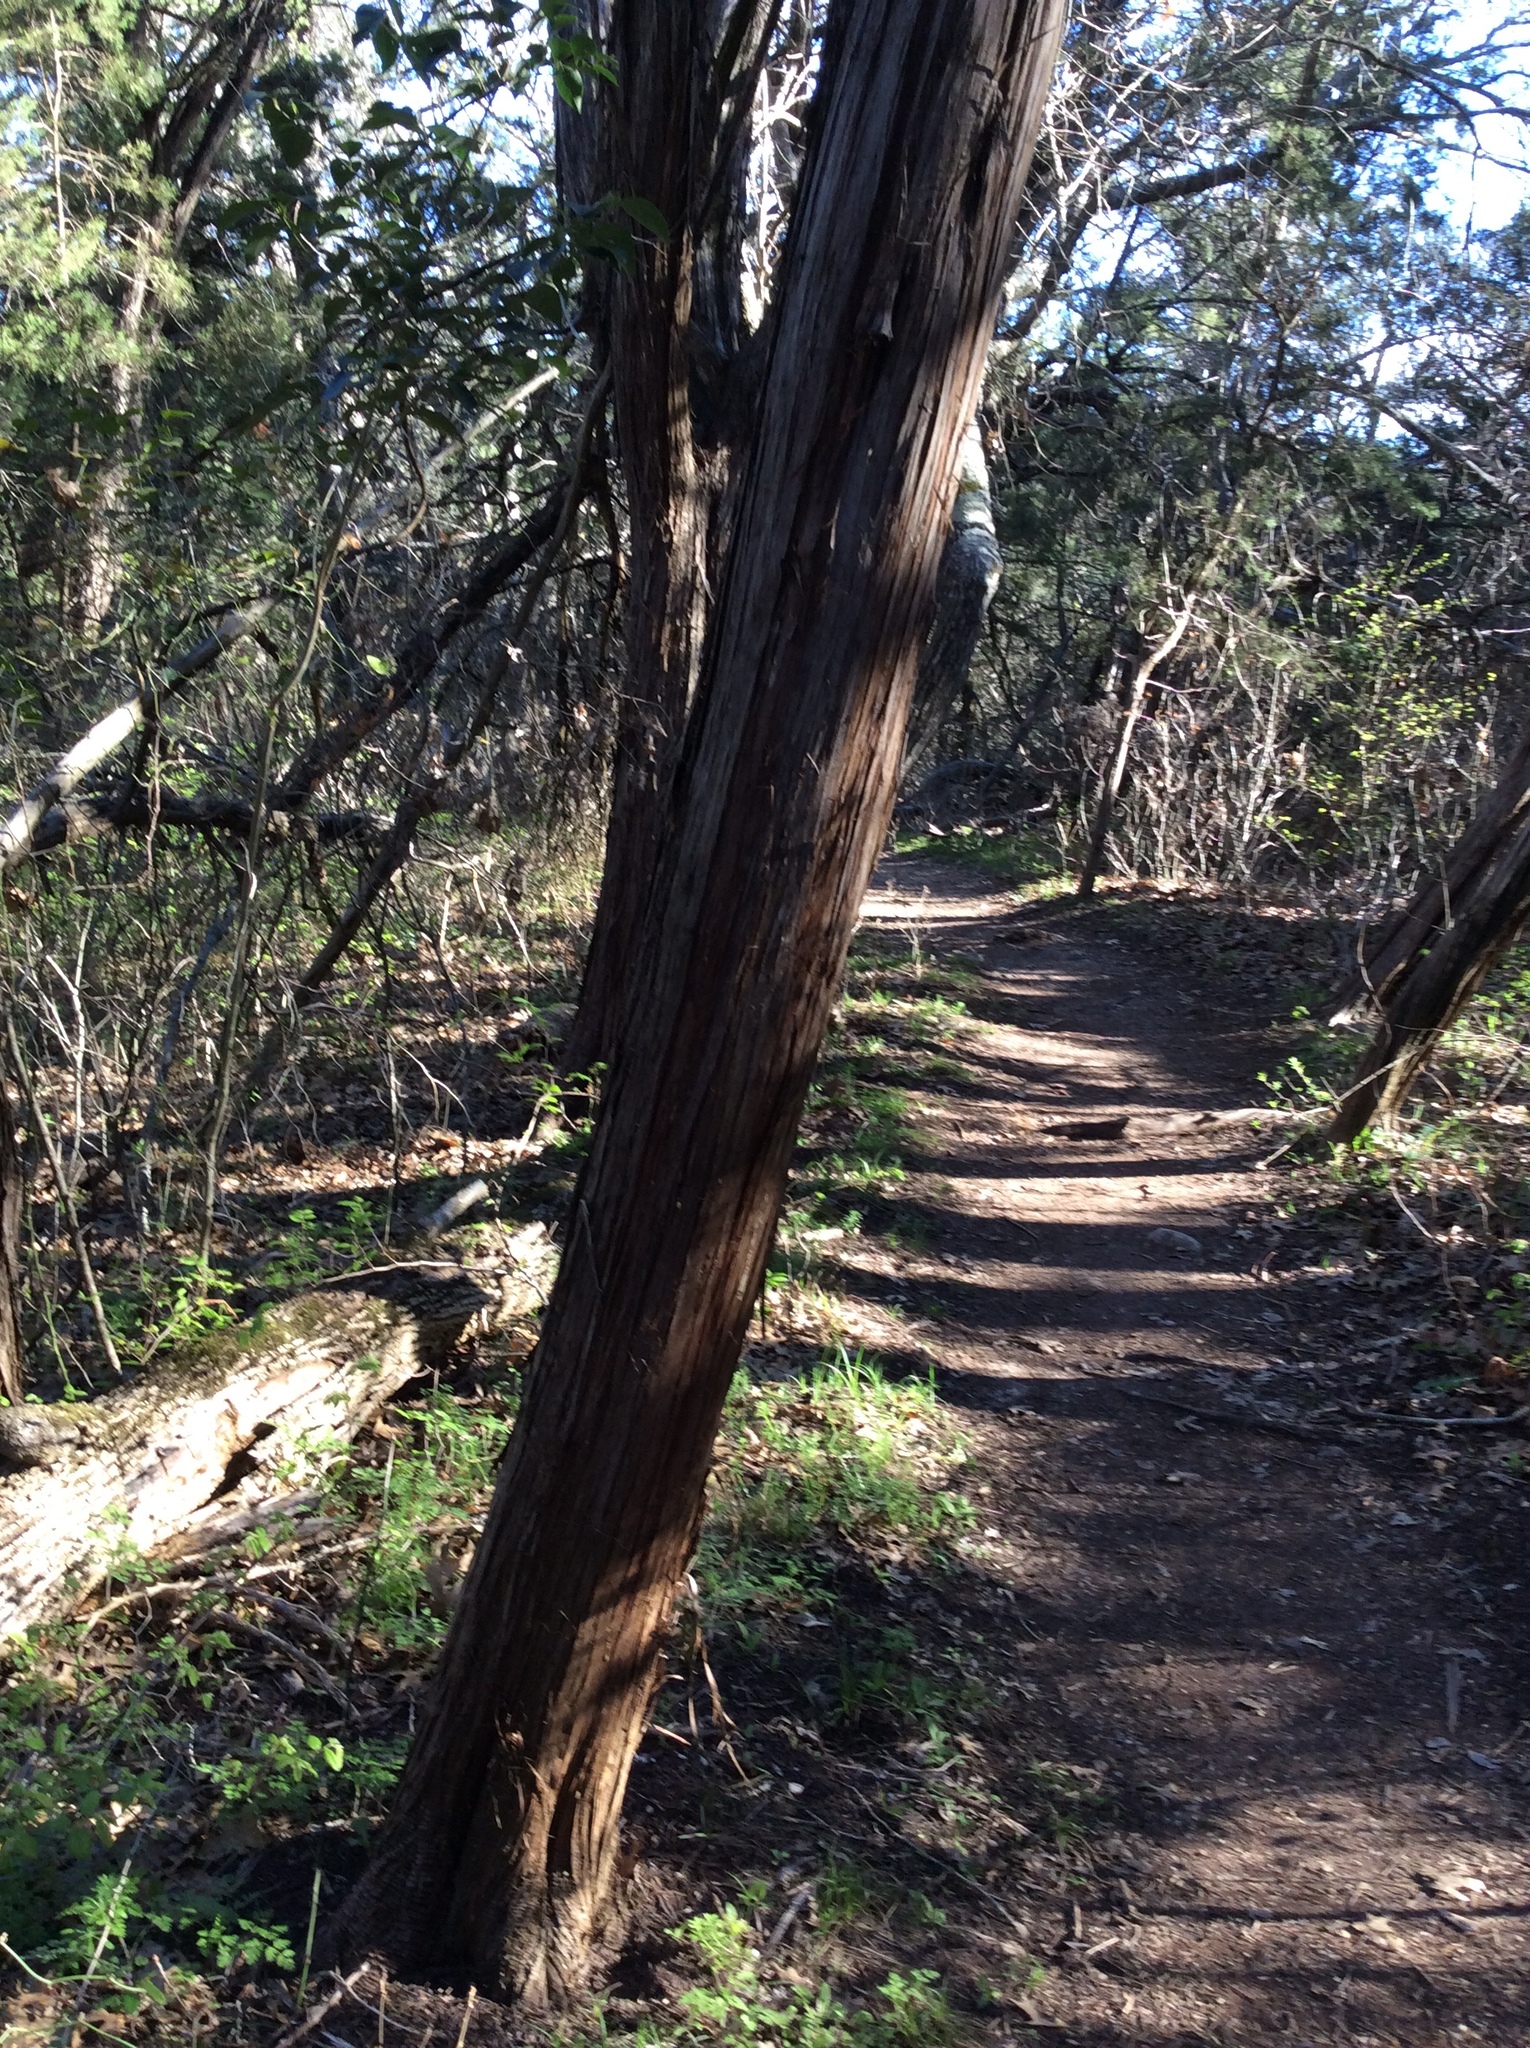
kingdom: Plantae
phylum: Tracheophyta
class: Pinopsida
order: Pinales
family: Cupressaceae
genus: Juniperus
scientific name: Juniperus ashei
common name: Mexican juniper
